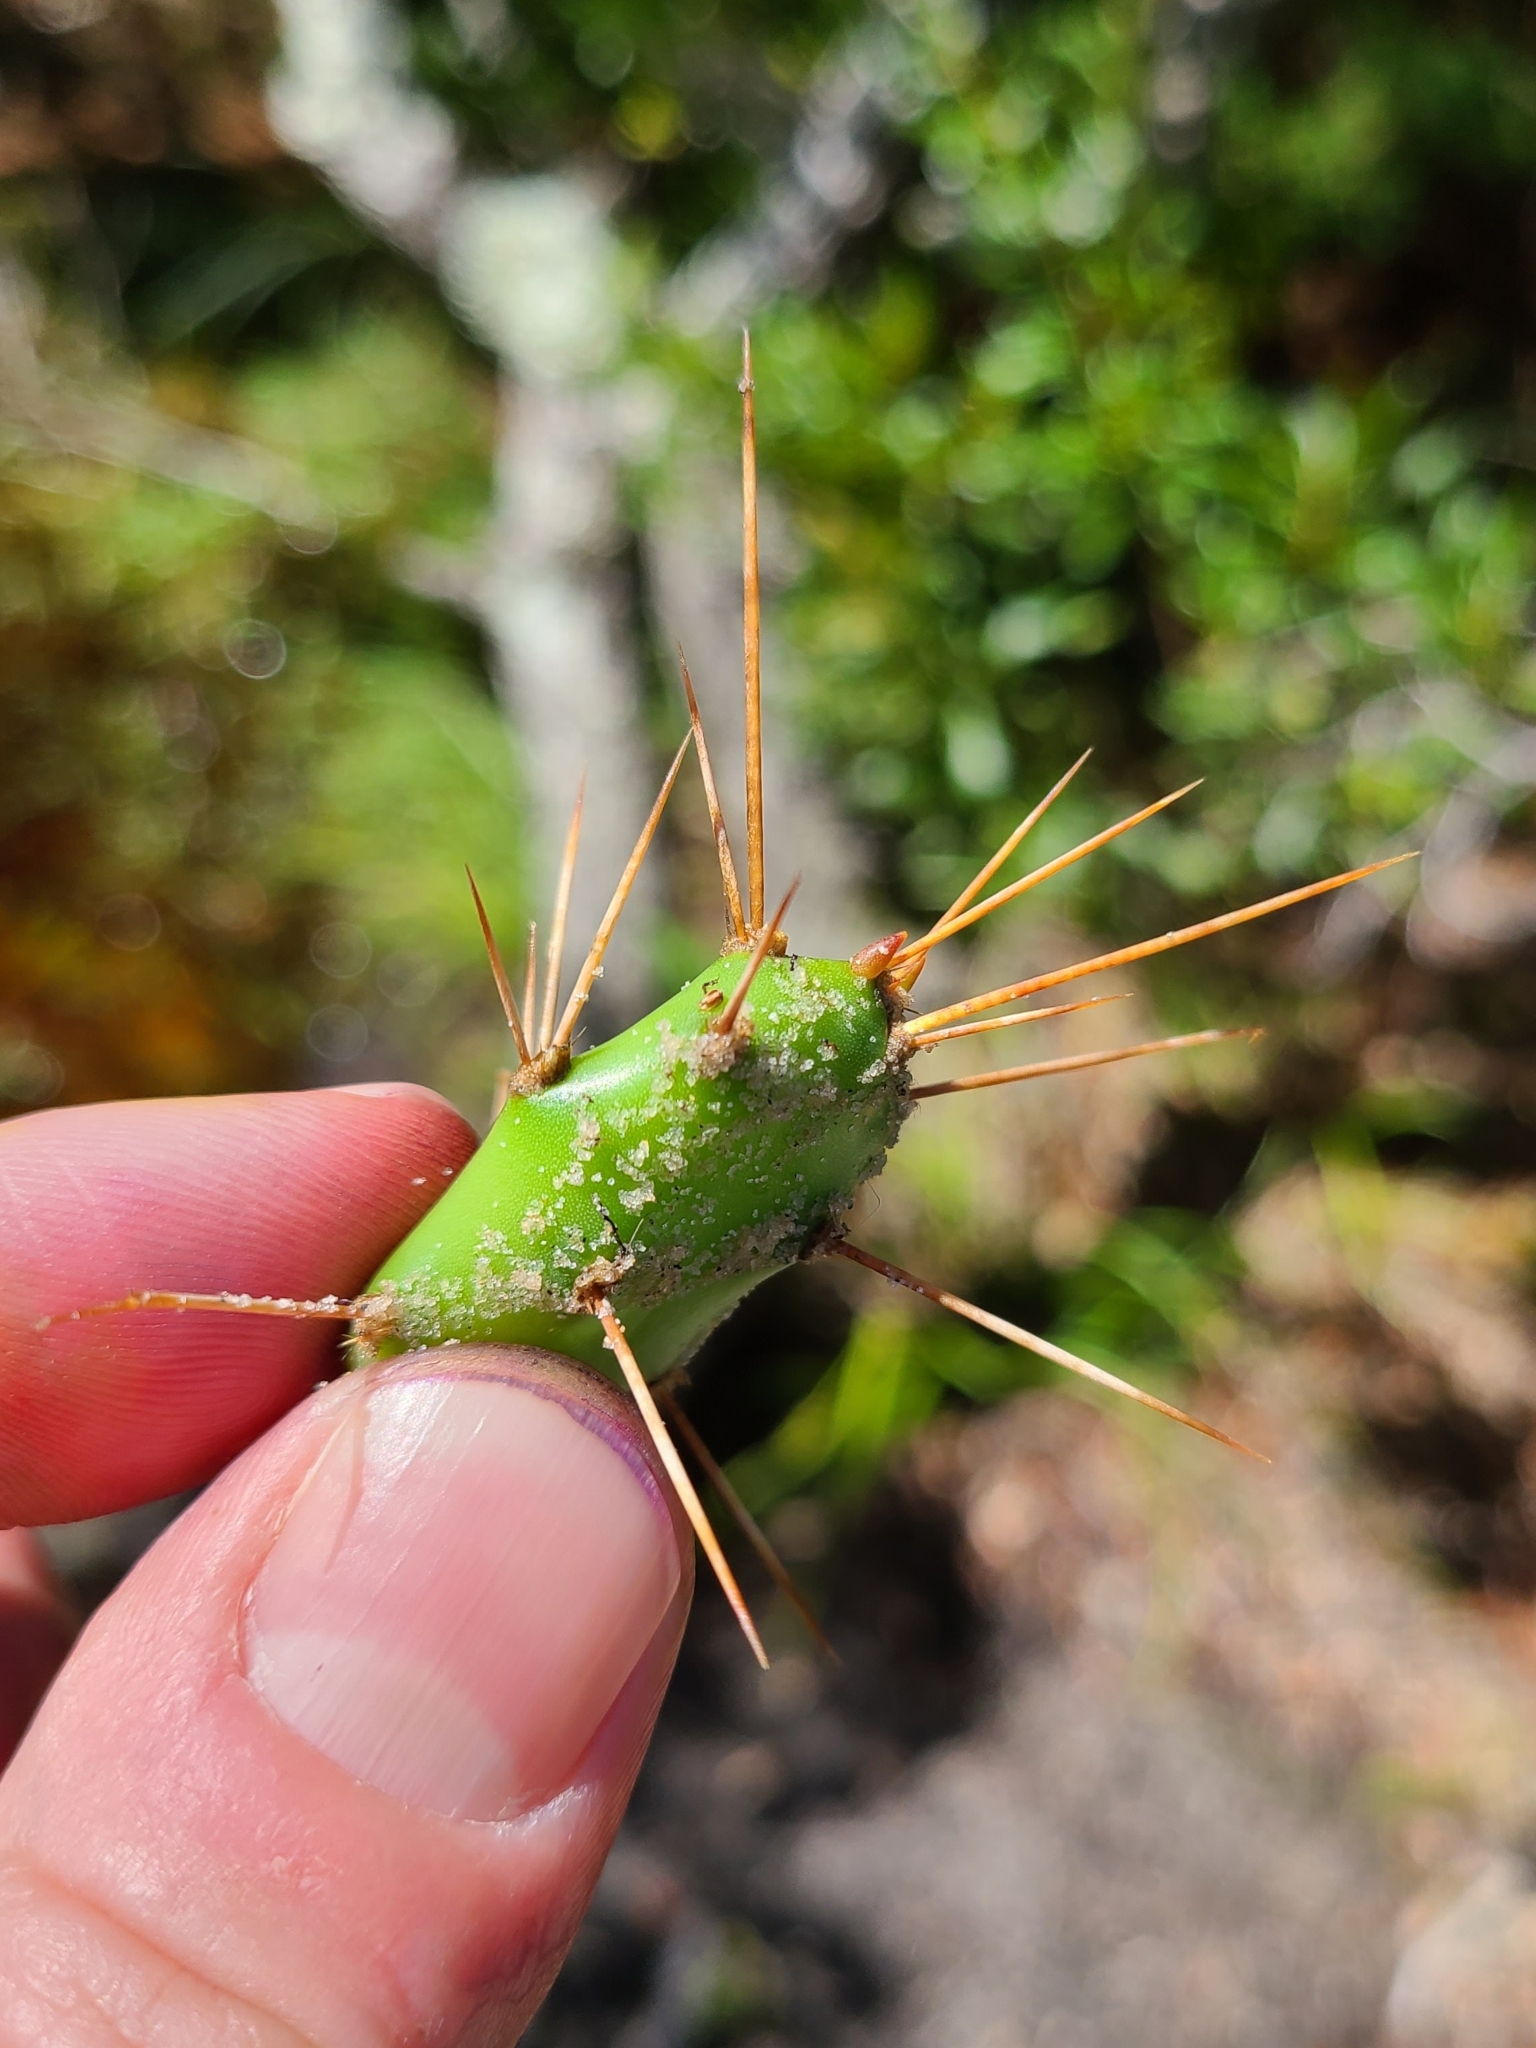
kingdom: Plantae
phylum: Tracheophyta
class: Magnoliopsida
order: Caryophyllales
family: Cactaceae
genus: Opuntia
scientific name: Opuntia drummondii
